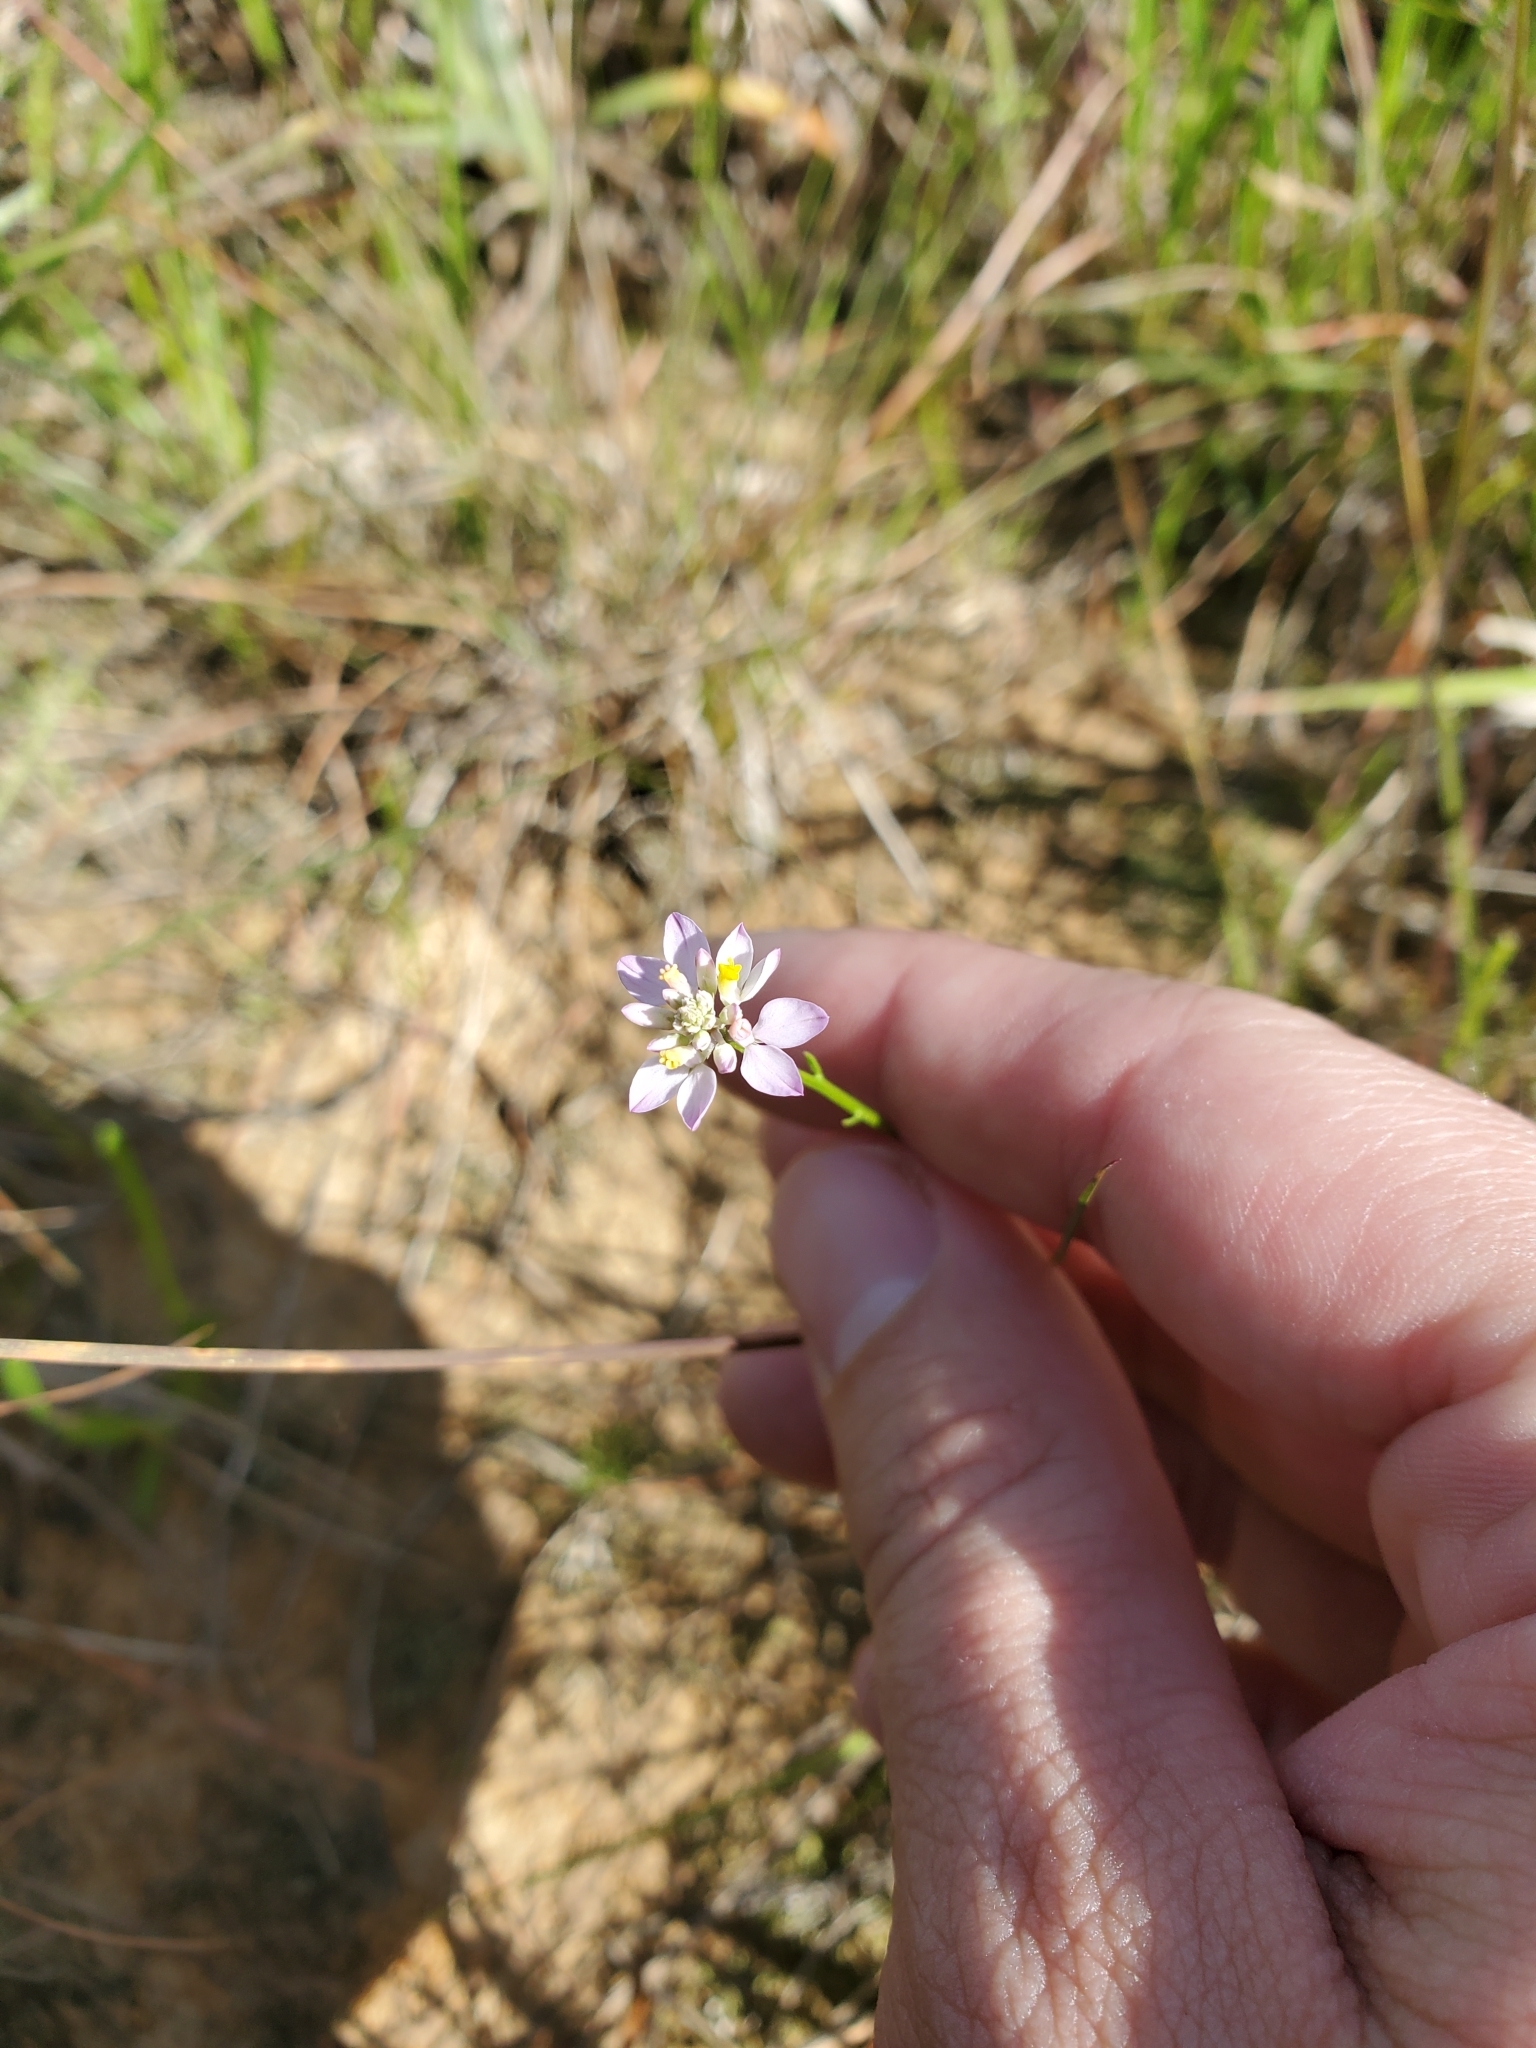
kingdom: Plantae
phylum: Tracheophyta
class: Magnoliopsida
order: Fabales
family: Polygalaceae
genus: Polygala
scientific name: Polygala mariana
